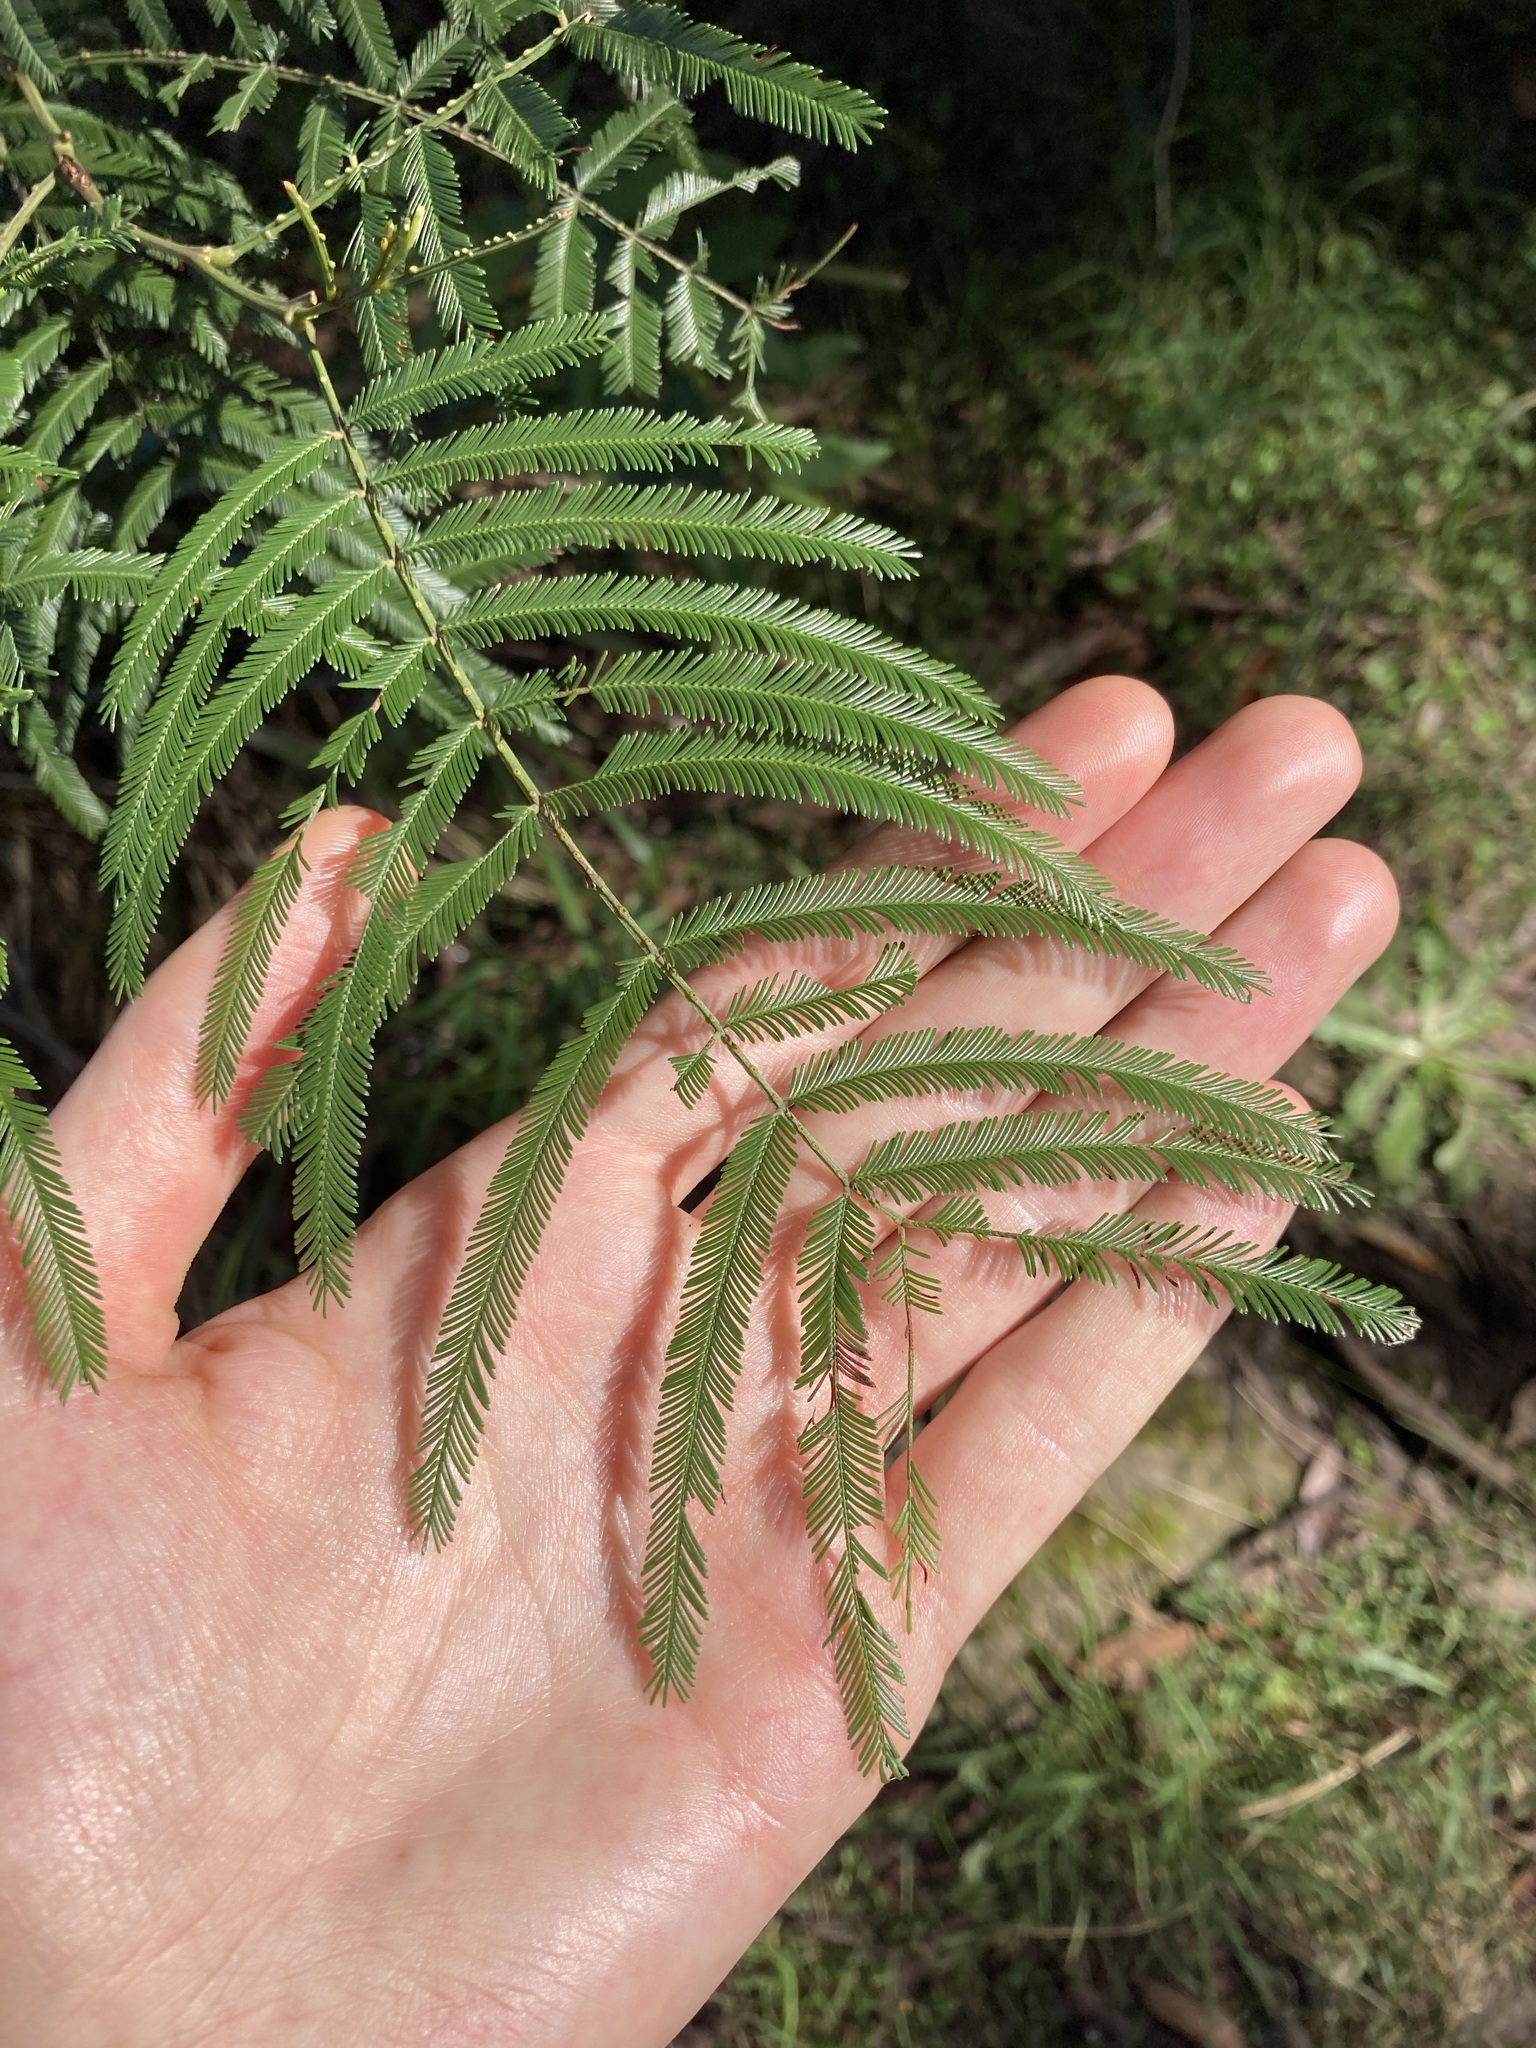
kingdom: Plantae
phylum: Tracheophyta
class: Magnoliopsida
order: Fabales
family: Fabaceae
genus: Acacia
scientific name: Acacia filicifolia
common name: Fern-leaved wattle
